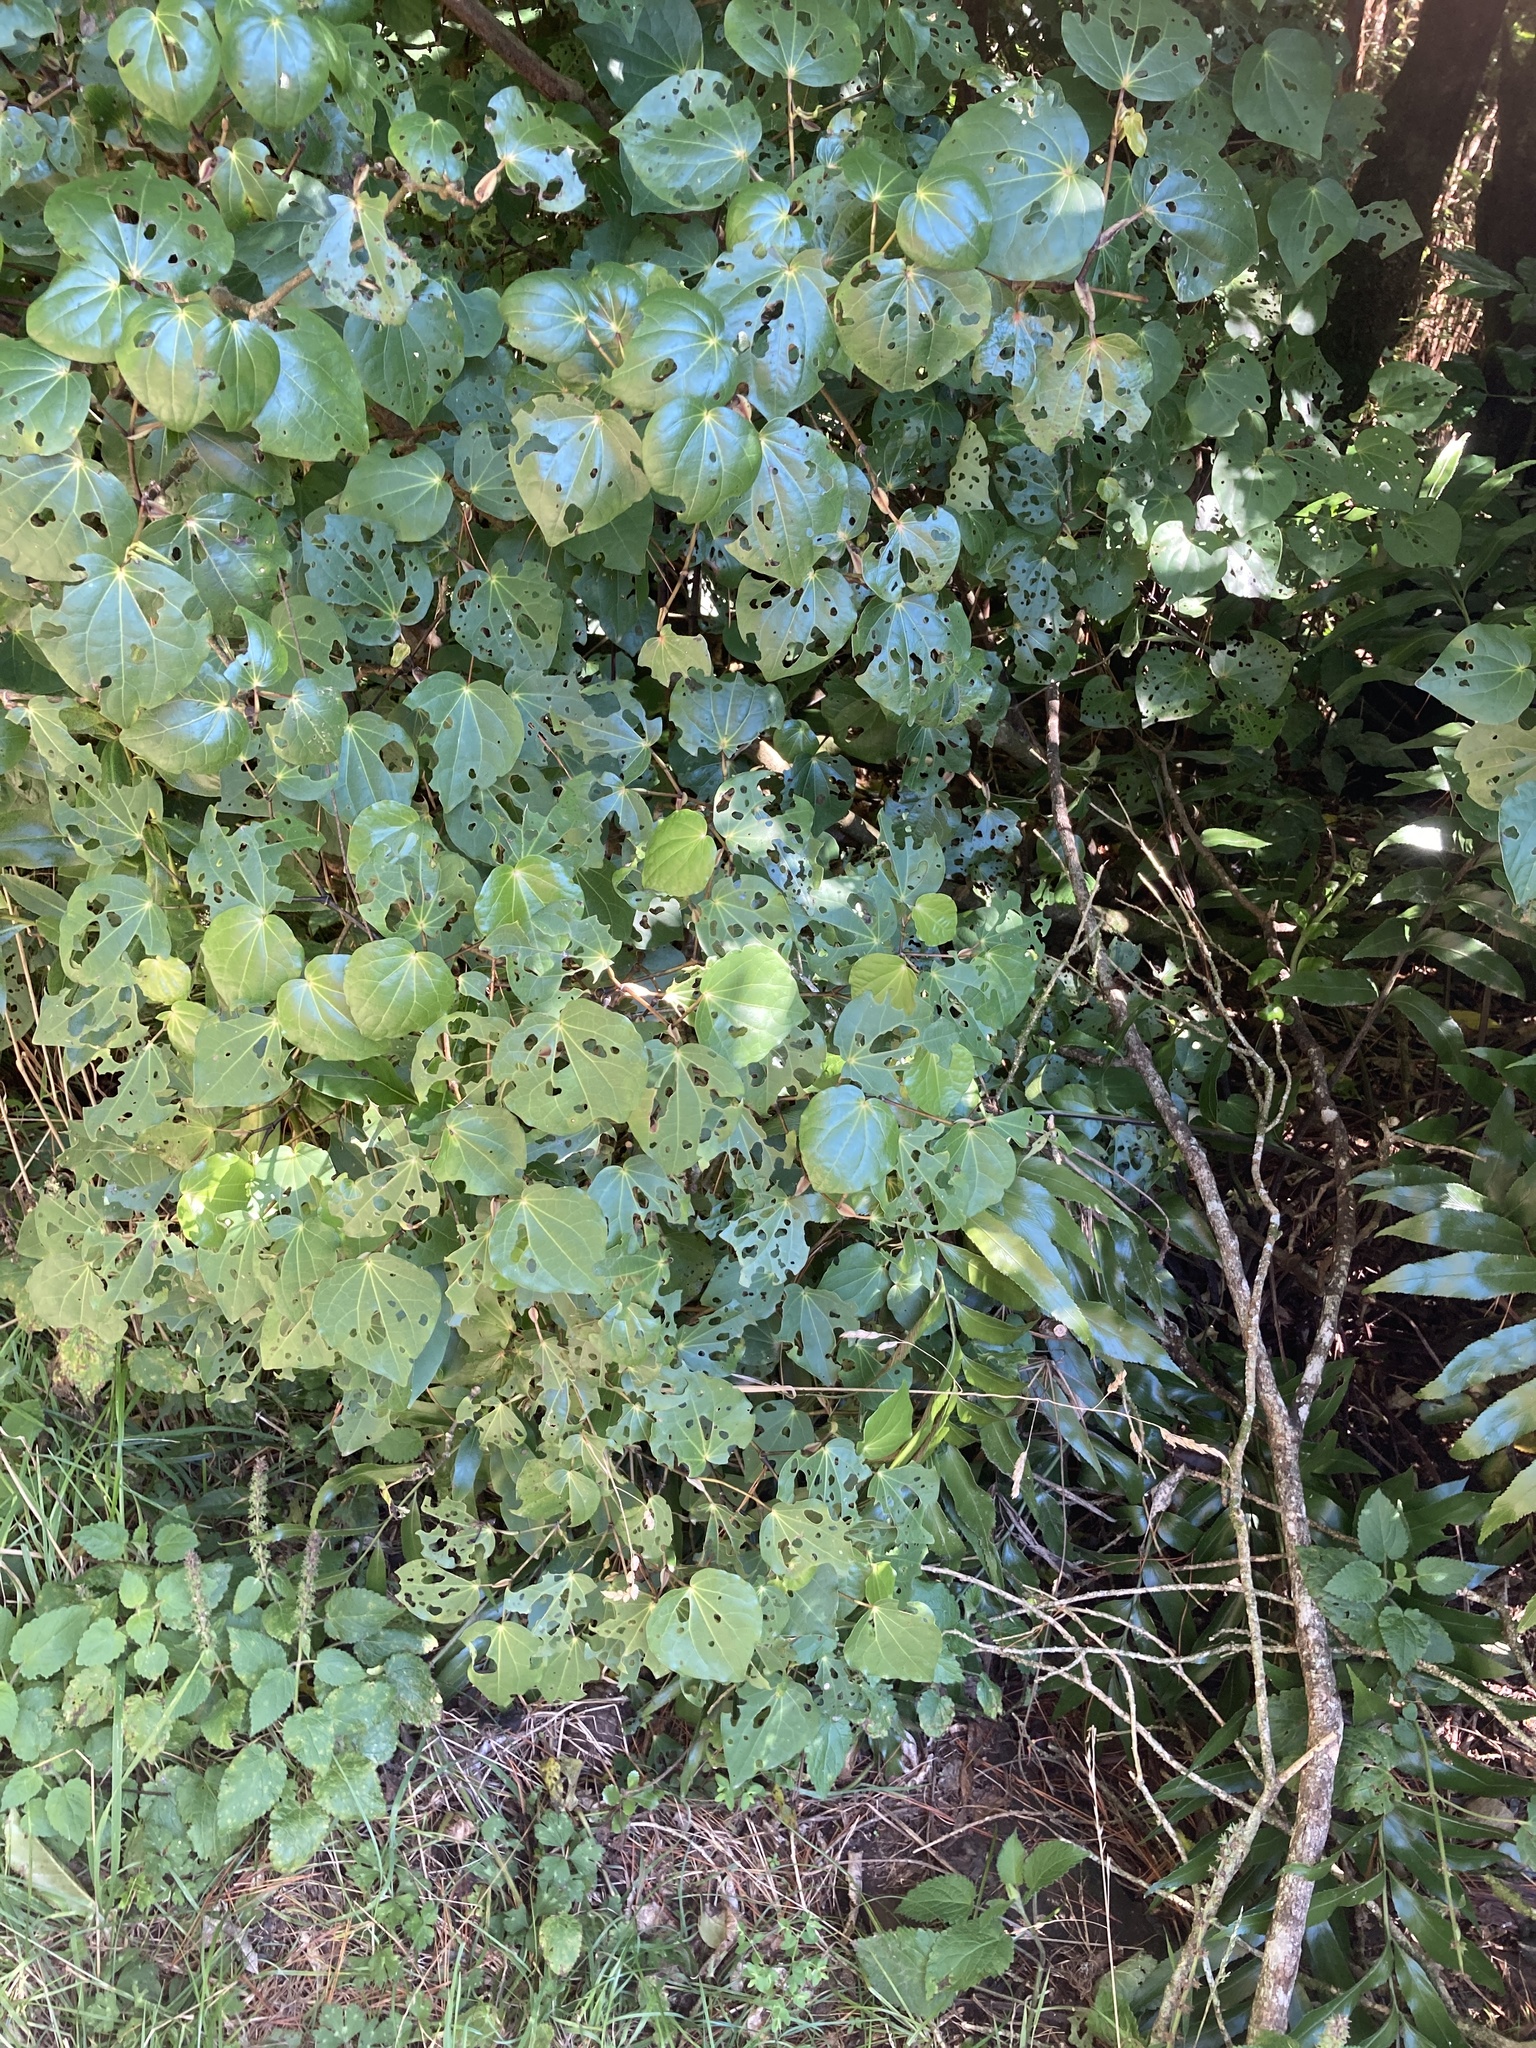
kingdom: Plantae
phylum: Tracheophyta
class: Magnoliopsida
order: Piperales
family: Piperaceae
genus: Macropiper
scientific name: Macropiper excelsum
